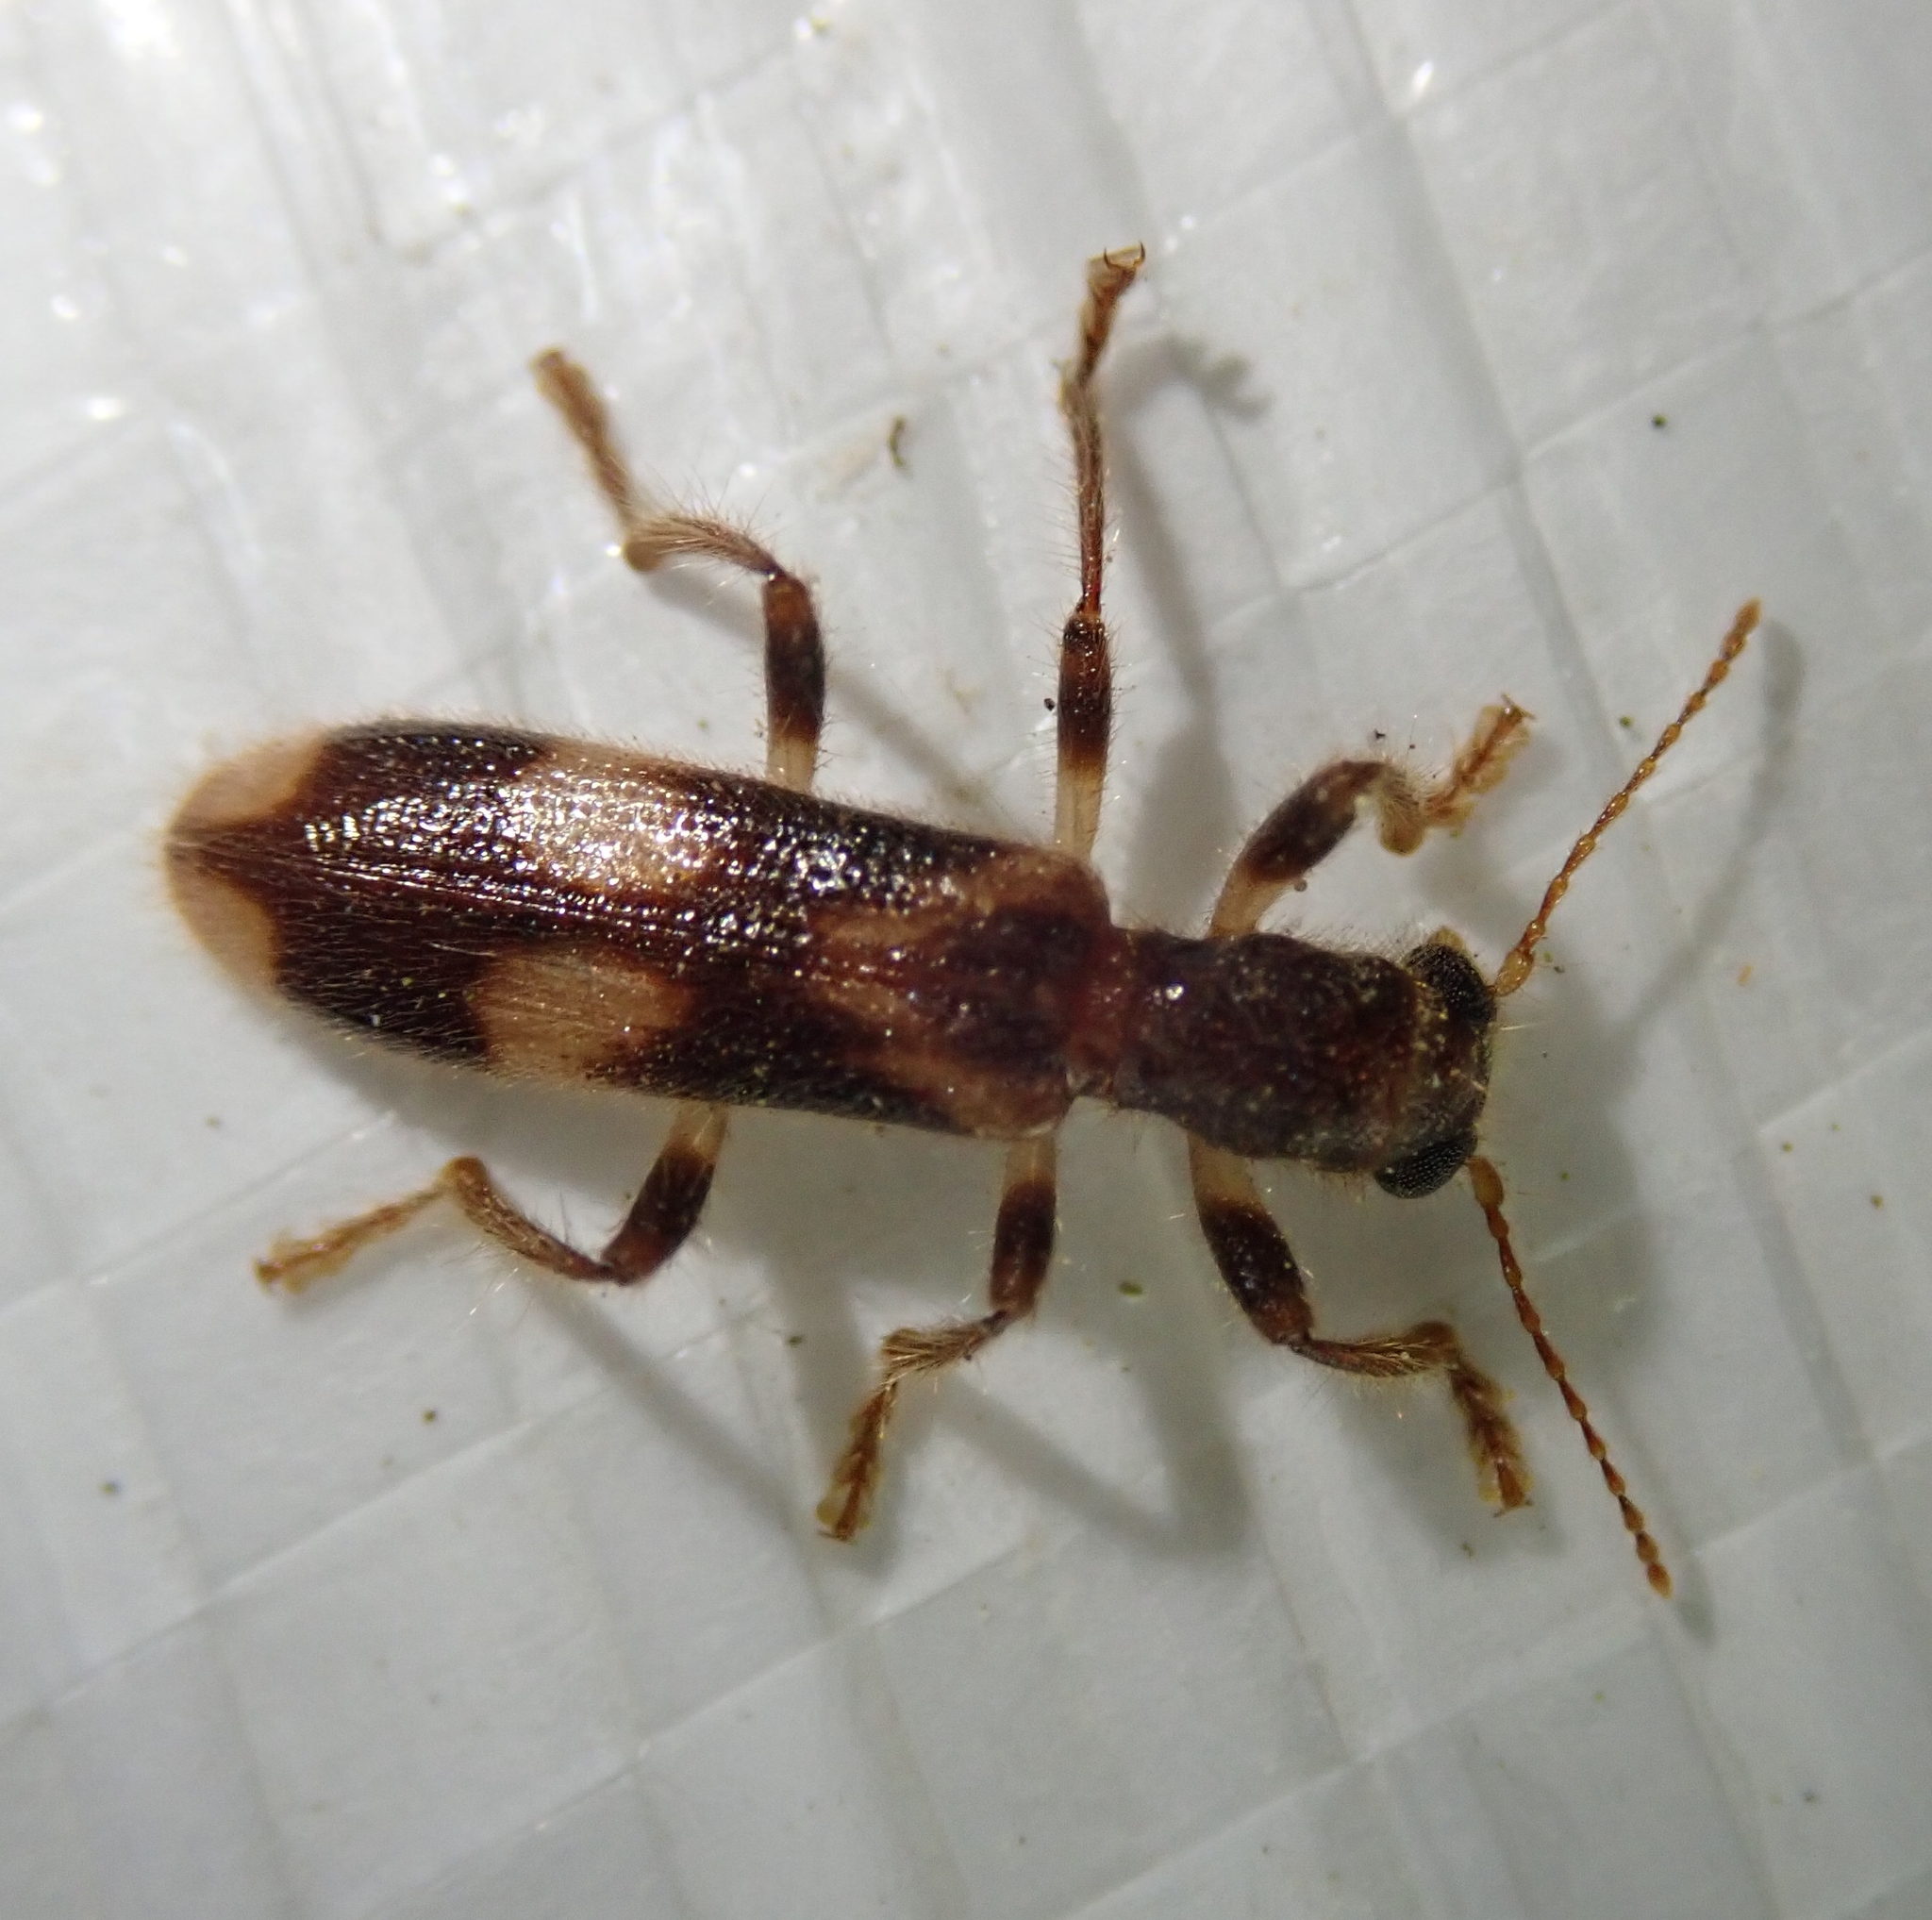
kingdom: Animalia
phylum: Arthropoda
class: Insecta
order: Coleoptera
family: Cleridae
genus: Opilo
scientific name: Opilo mollis
